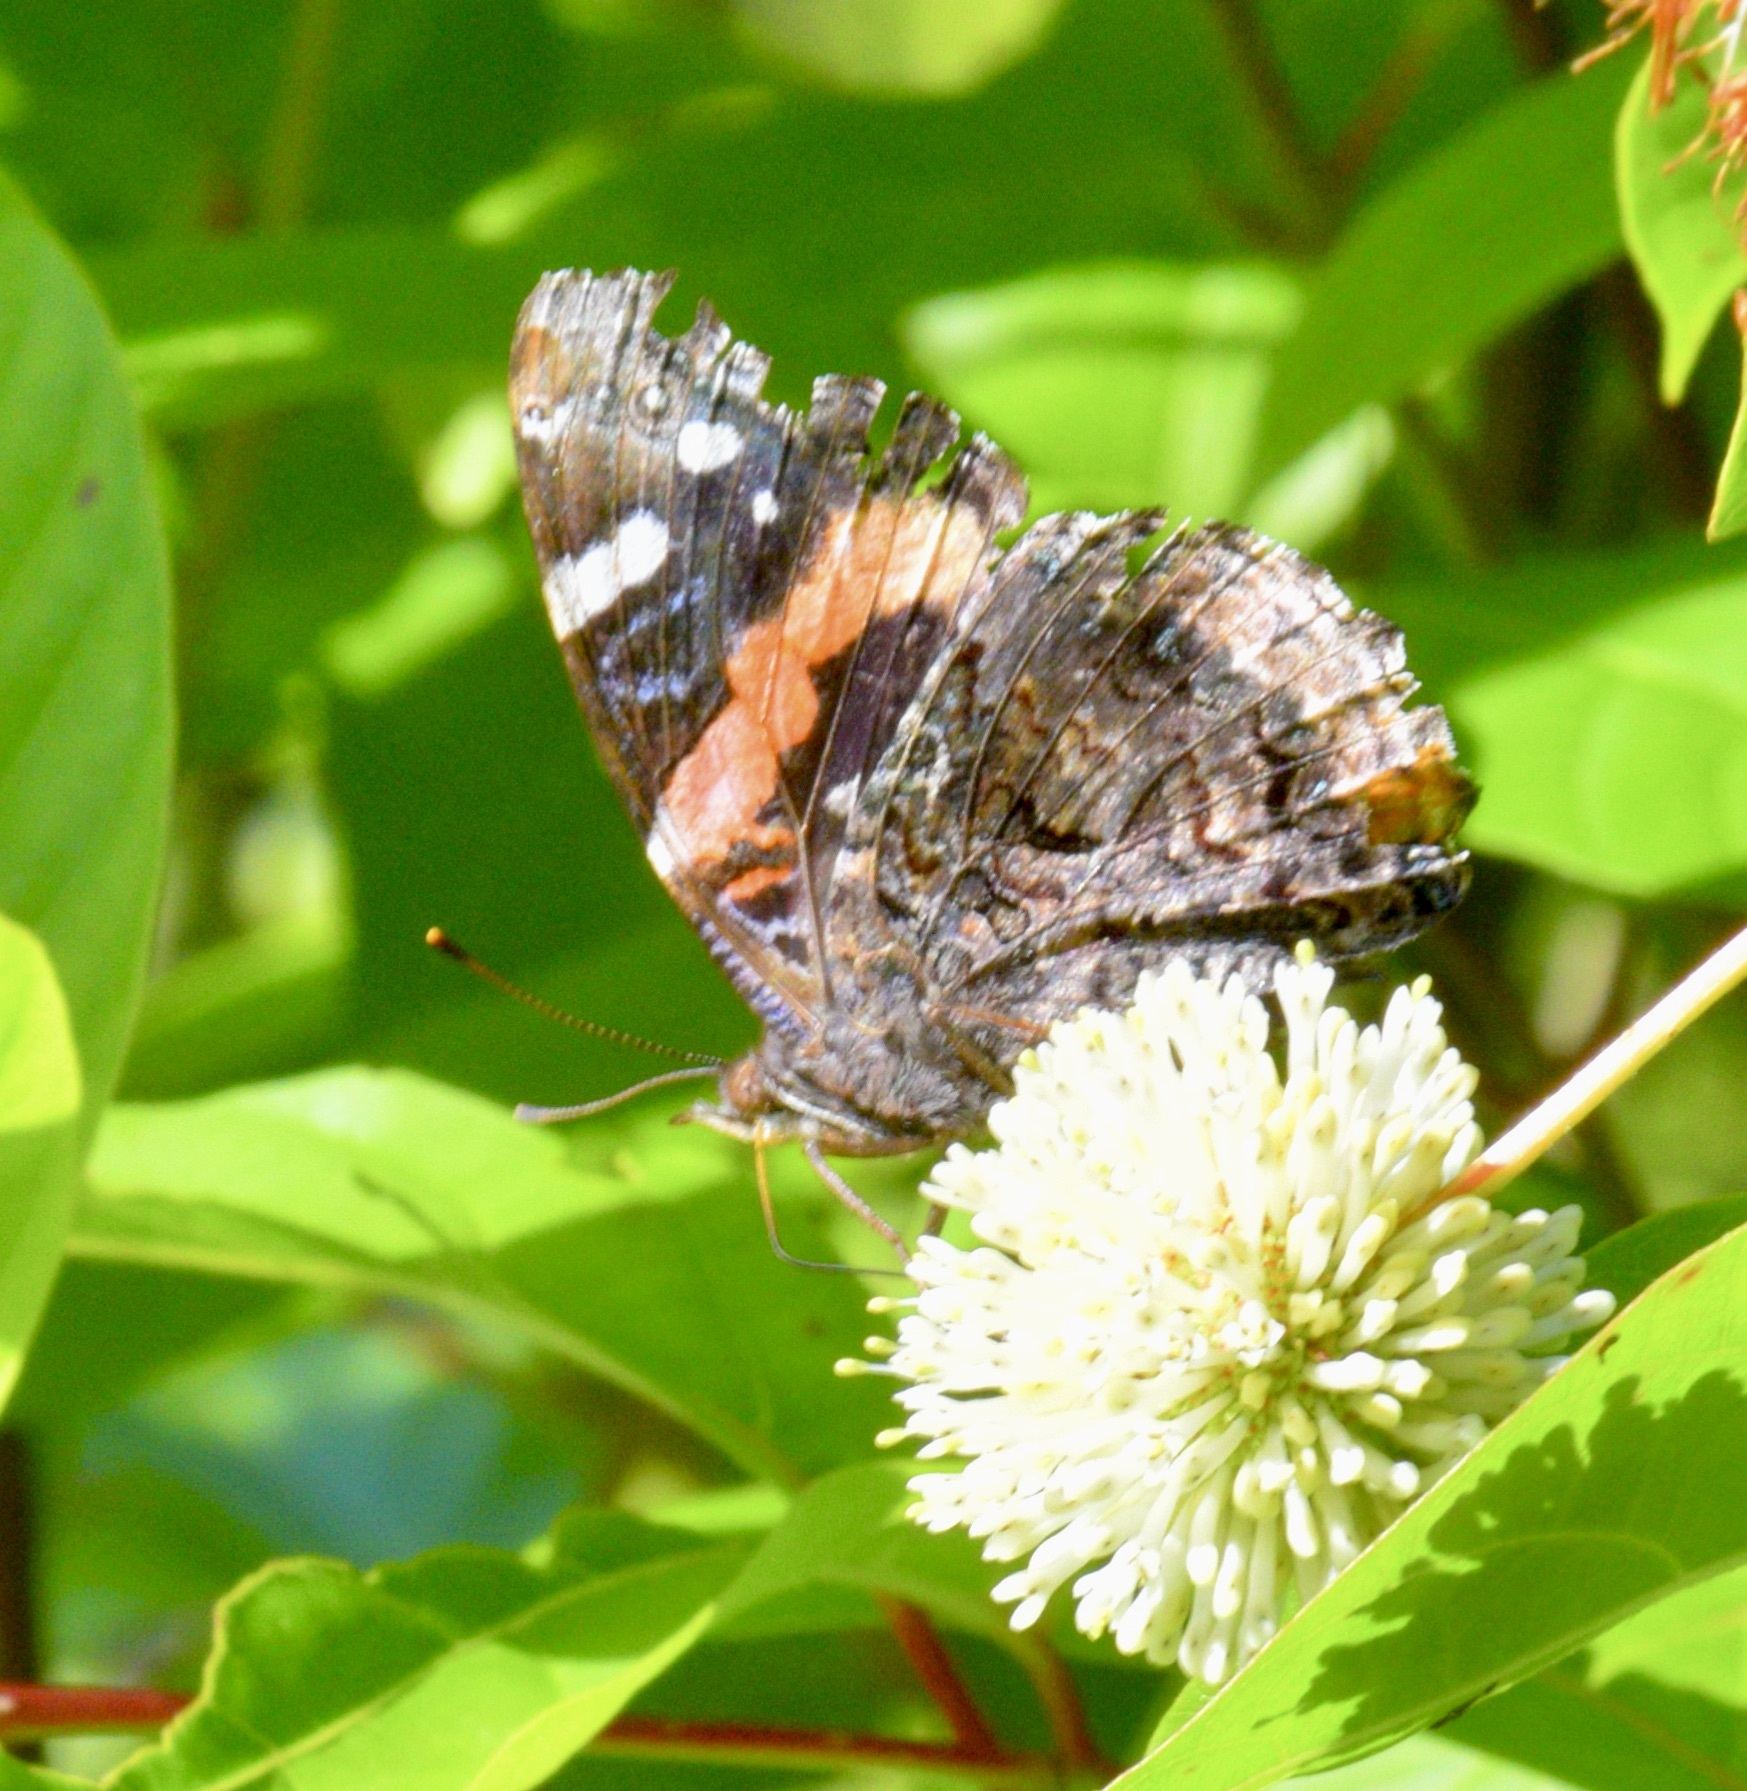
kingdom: Animalia
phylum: Arthropoda
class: Insecta
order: Lepidoptera
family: Nymphalidae
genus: Vanessa
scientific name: Vanessa atalanta
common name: Red admiral
